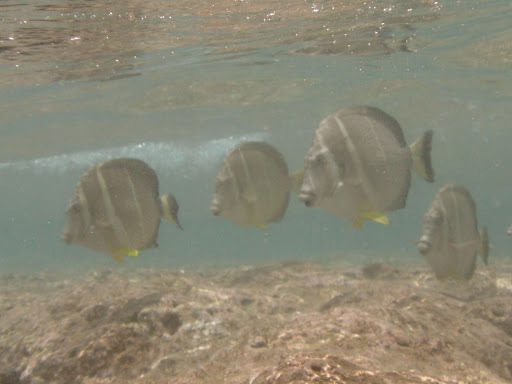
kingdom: Animalia
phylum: Chordata
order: Perciformes
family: Acanthuridae
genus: Acanthurus
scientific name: Acanthurus guttatus
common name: Whitespotted surgeonfish
